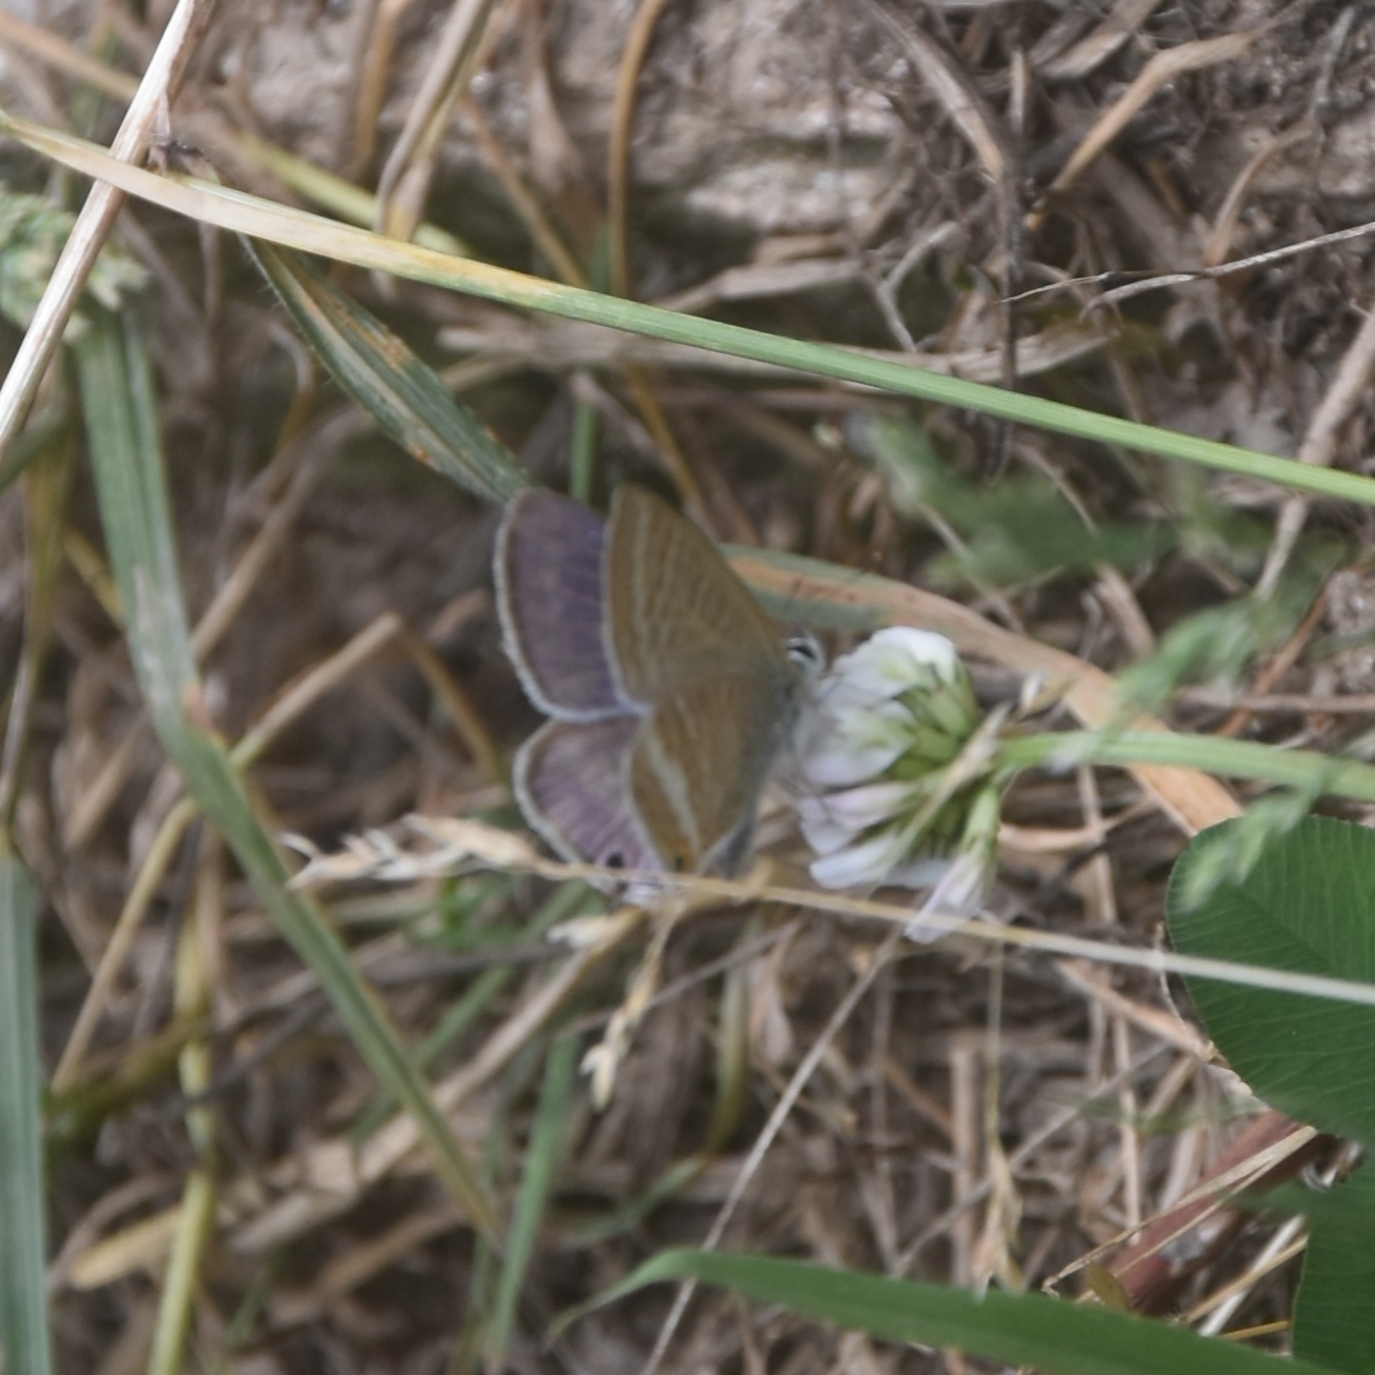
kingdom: Animalia
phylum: Arthropoda
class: Insecta
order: Lepidoptera
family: Lycaenidae
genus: Lampides
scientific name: Lampides boeticus
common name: Long-tailed blue
